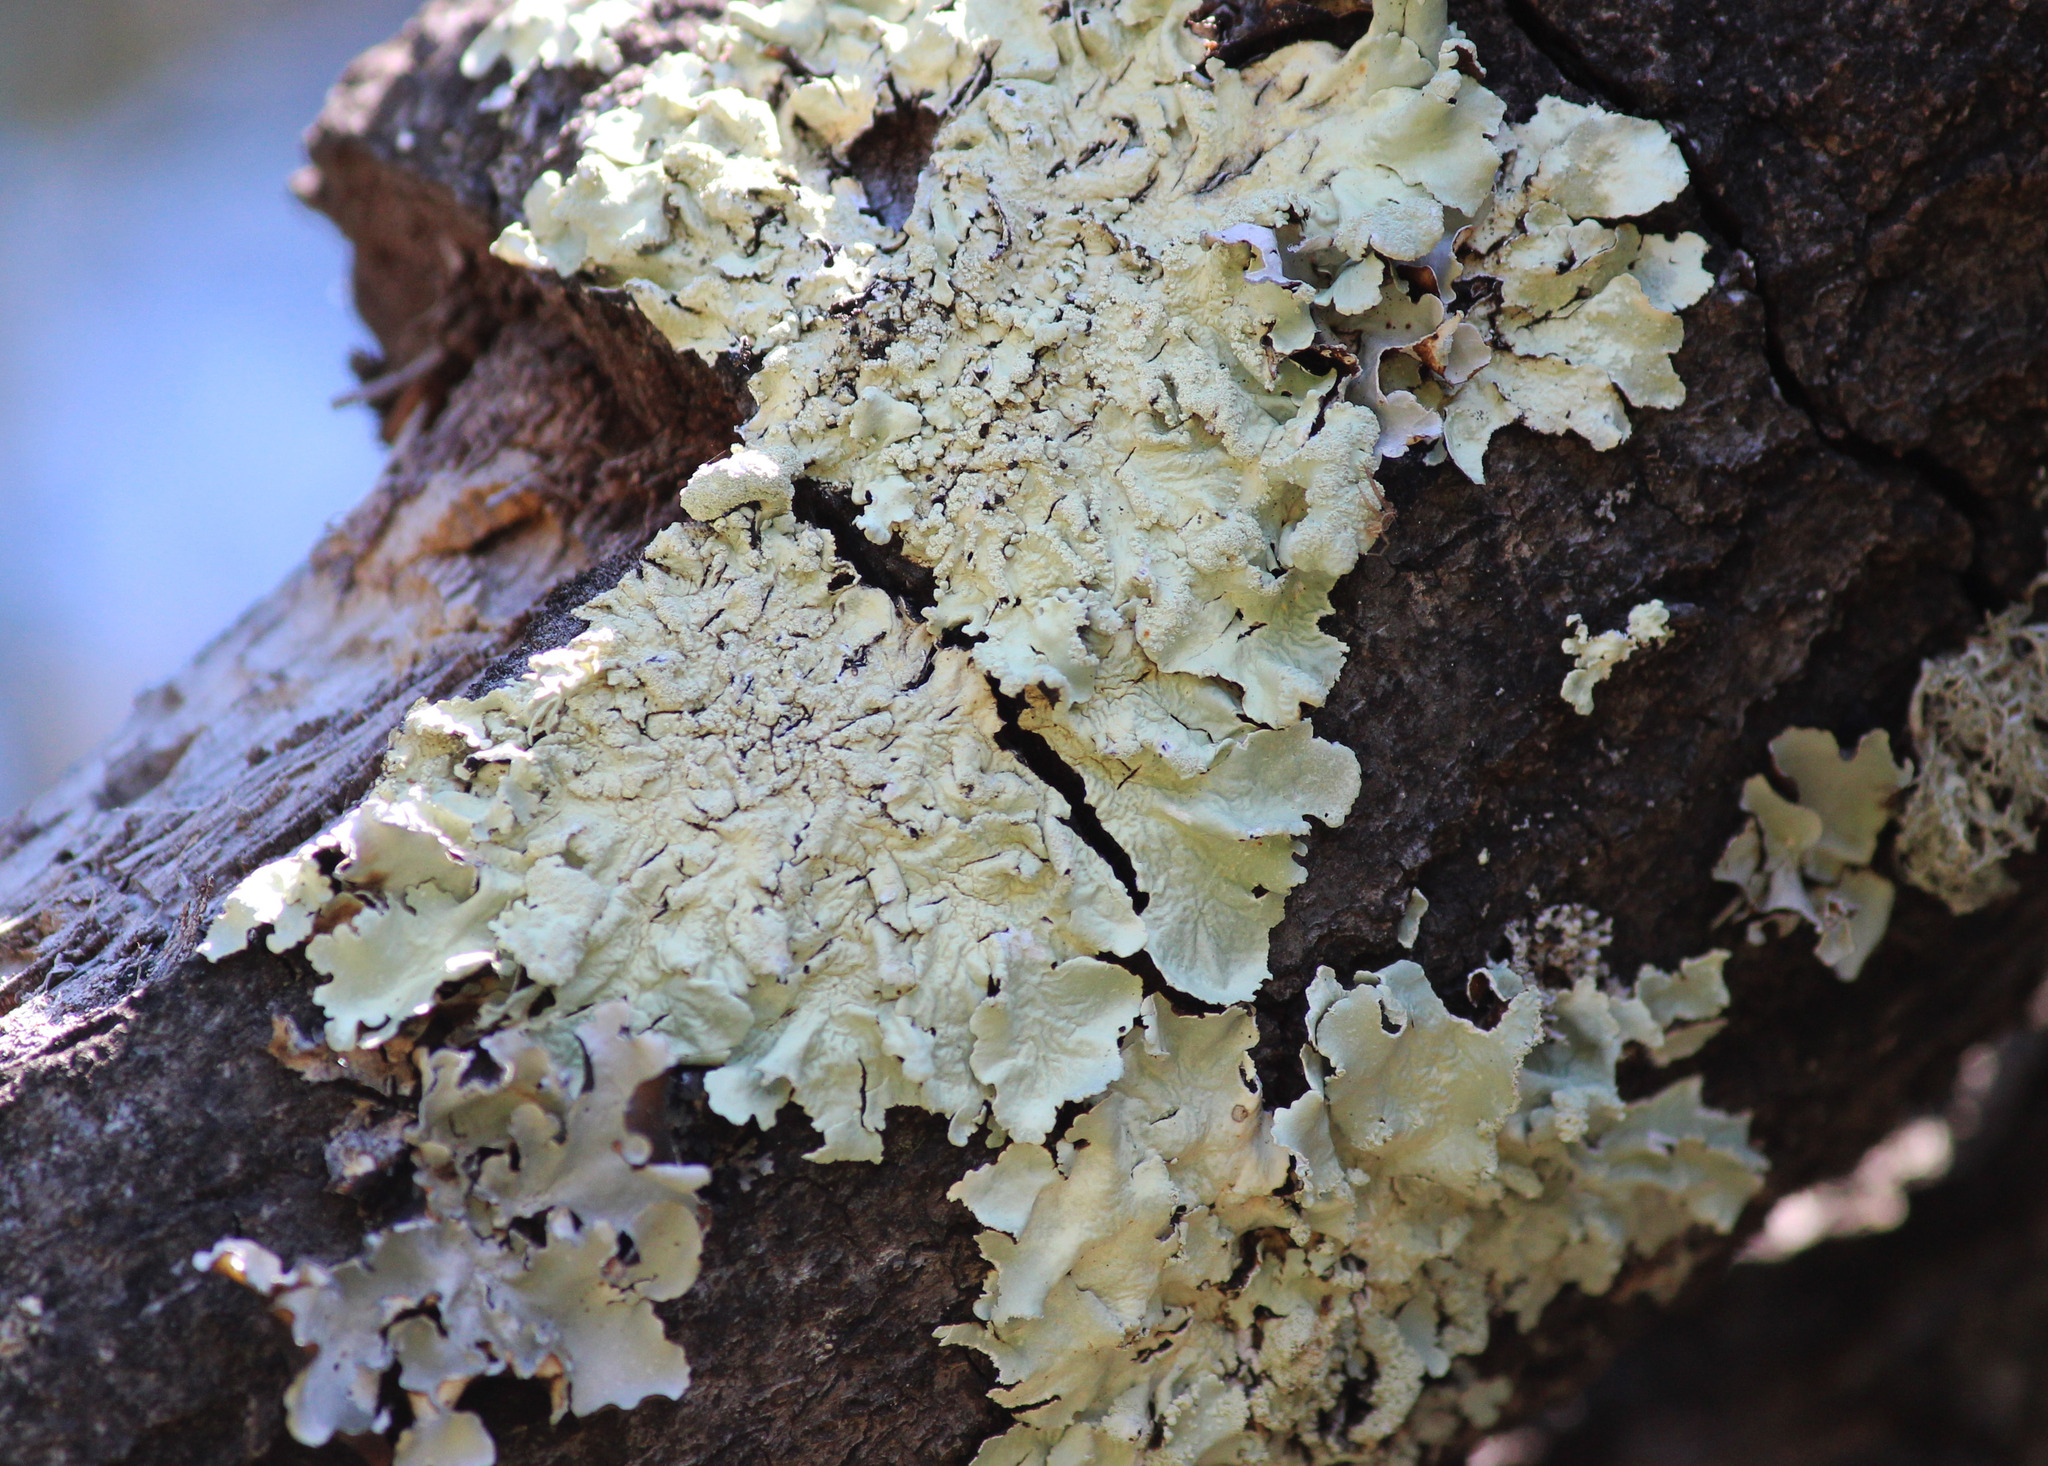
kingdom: Fungi
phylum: Ascomycota
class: Lecanoromycetes
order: Lecanorales
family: Parmeliaceae
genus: Flavoparmelia
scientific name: Flavoparmelia caperata
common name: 40-mile per hour lichen
